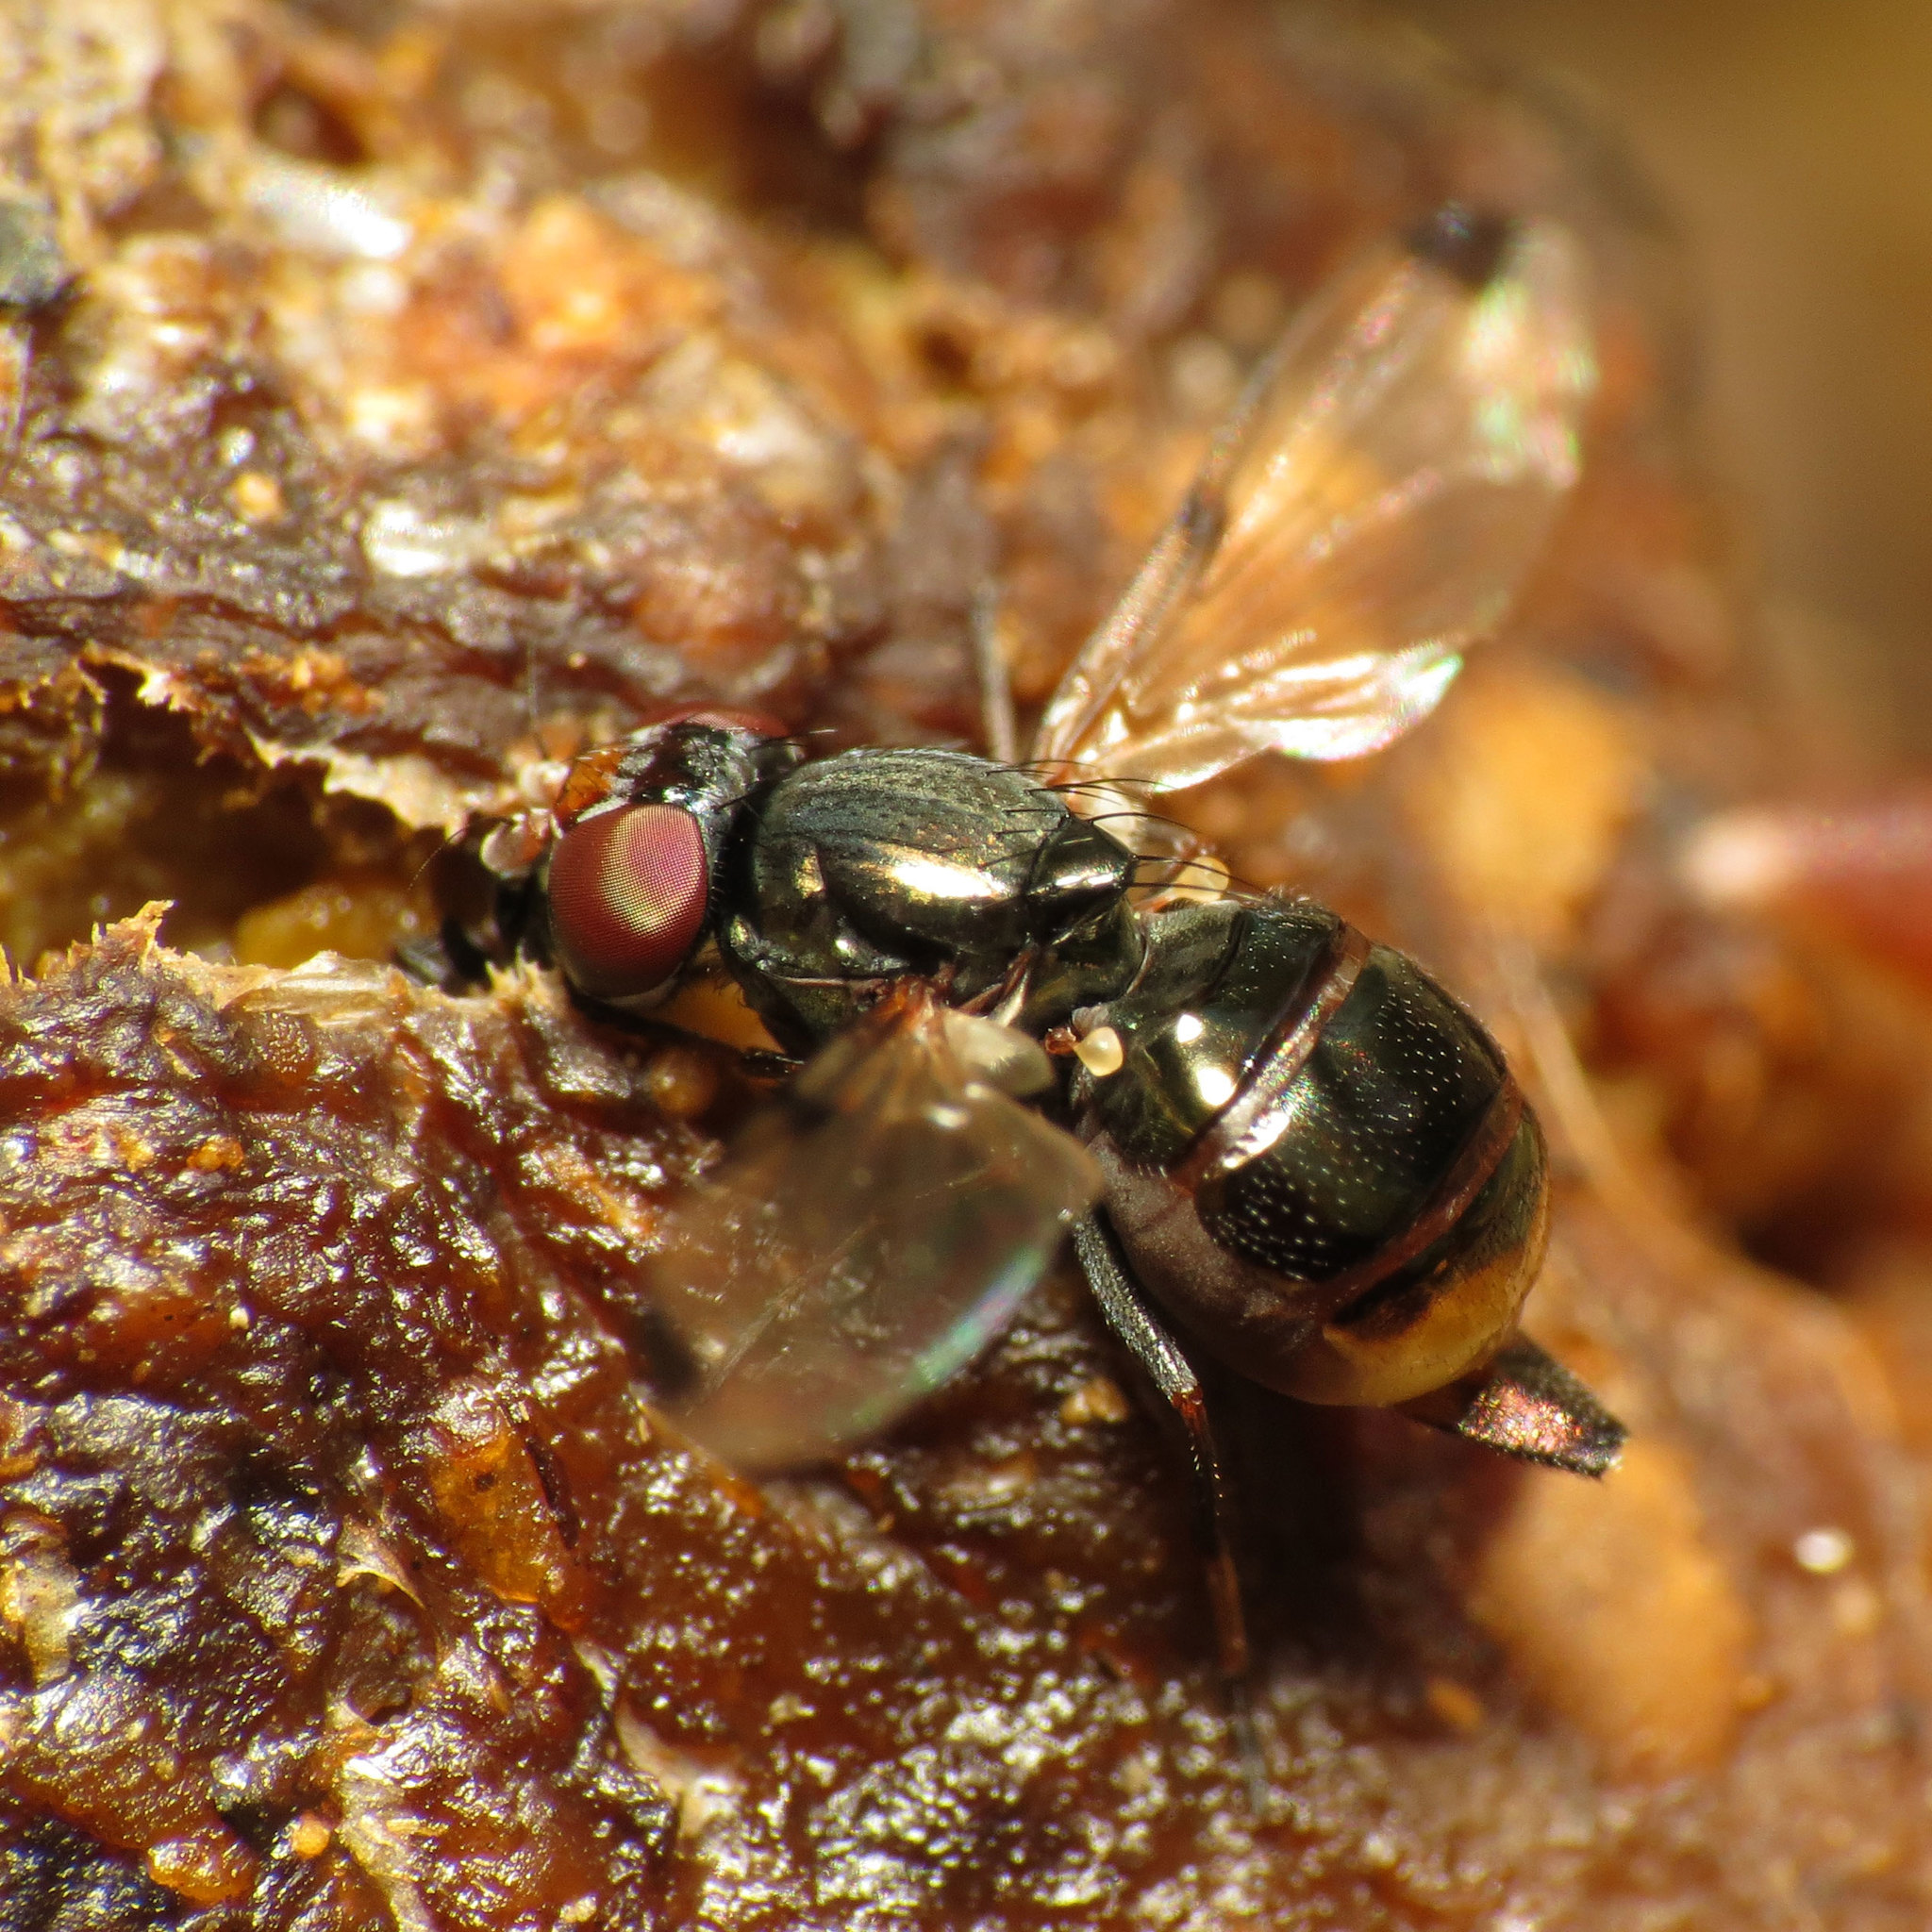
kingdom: Animalia
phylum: Arthropoda
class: Insecta
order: Diptera
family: Ulidiidae
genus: Euxesta
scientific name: Euxesta notata
